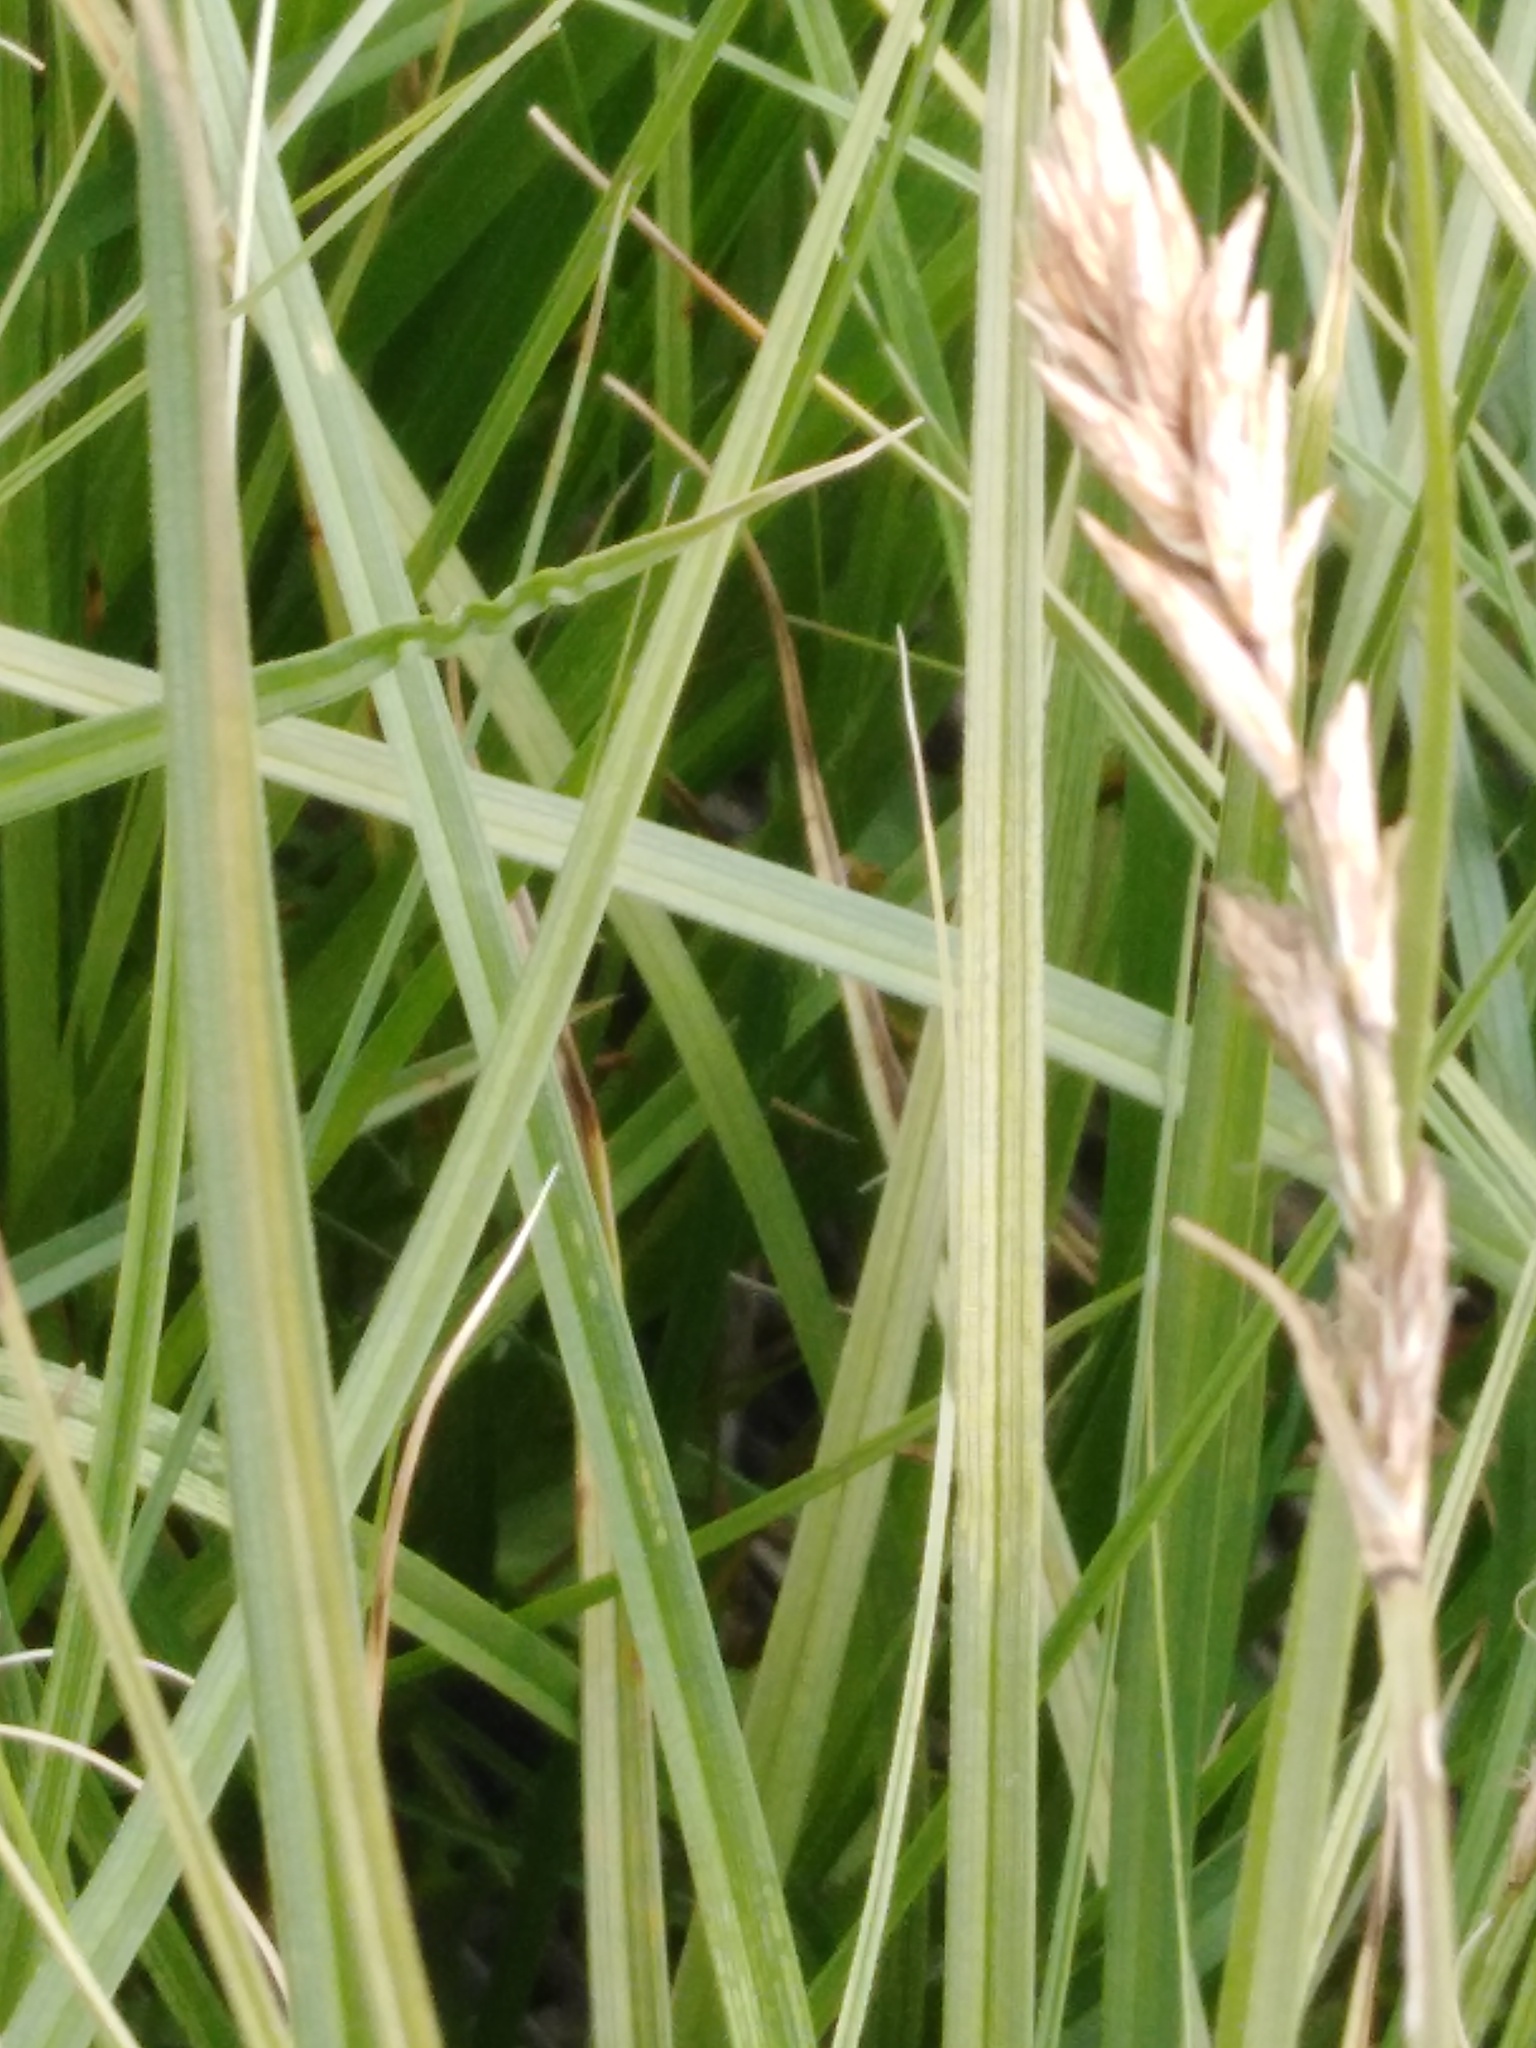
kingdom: Plantae
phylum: Tracheophyta
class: Liliopsida
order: Poales
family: Cyperaceae
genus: Carex
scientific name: Carex disticha
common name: Brown sedge
